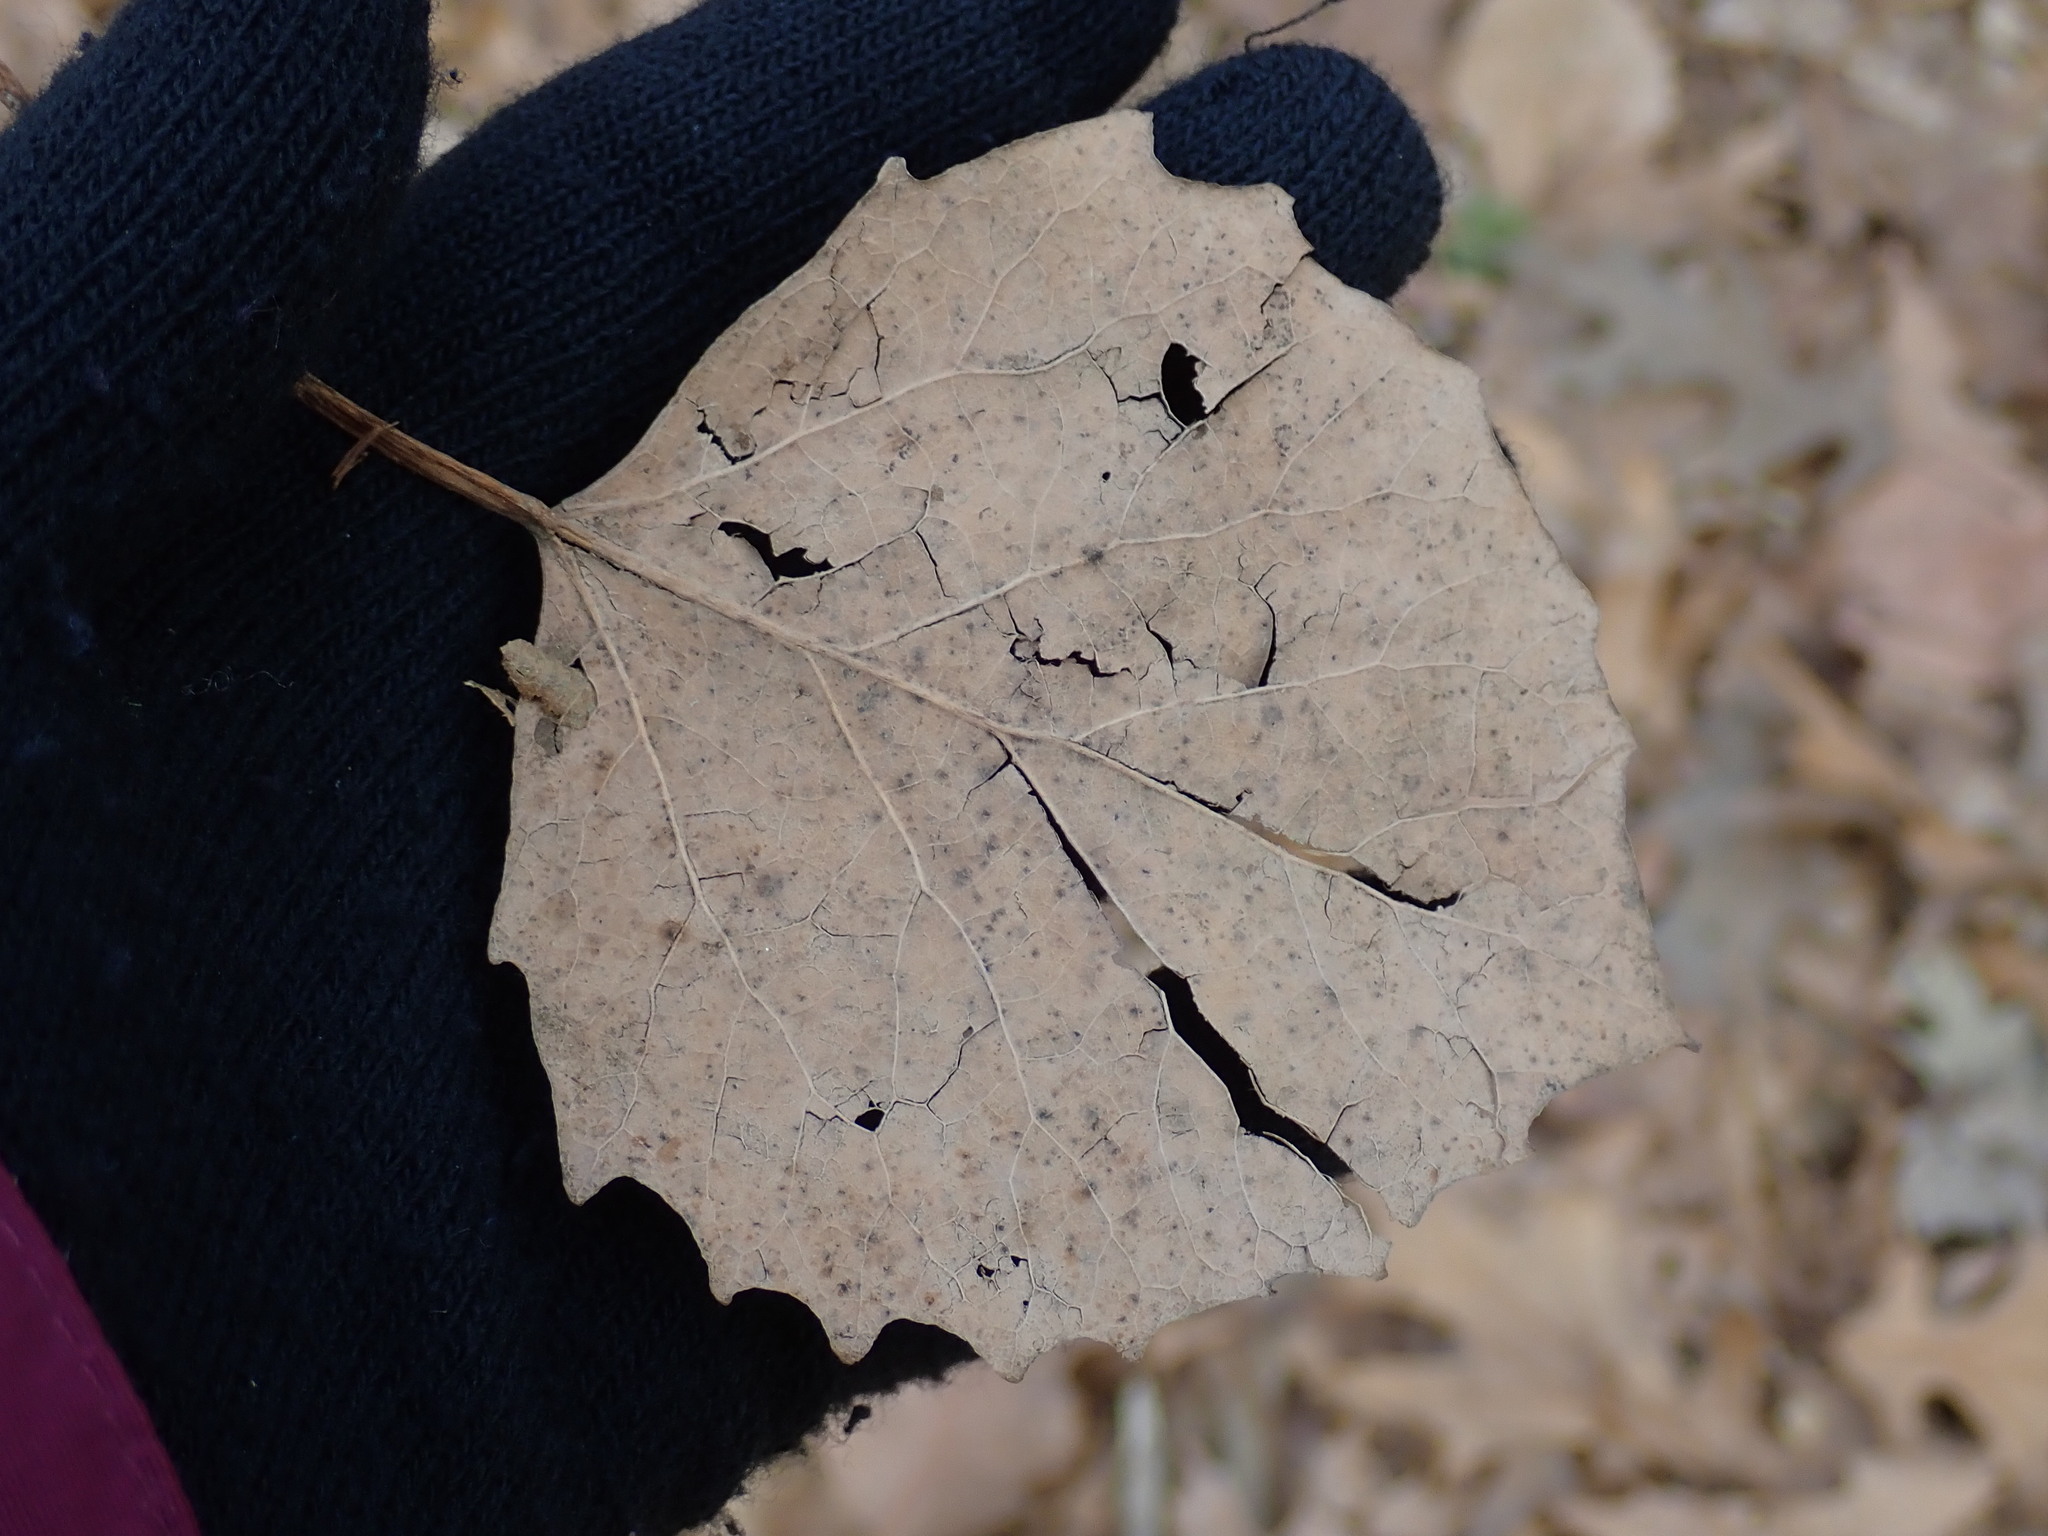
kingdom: Plantae
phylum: Tracheophyta
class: Magnoliopsida
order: Malpighiales
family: Salicaceae
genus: Populus
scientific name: Populus grandidentata
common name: Bigtooth aspen
